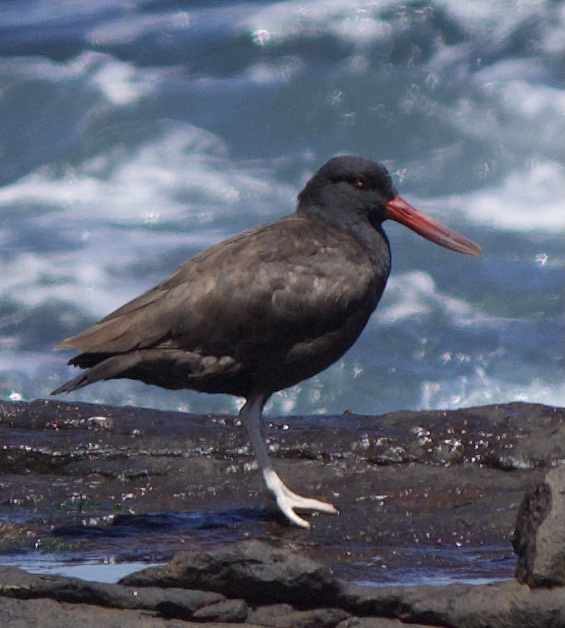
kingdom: Animalia
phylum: Chordata
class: Aves
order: Charadriiformes
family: Haematopodidae
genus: Haematopus
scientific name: Haematopus ater
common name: Blackish oystercatcher
